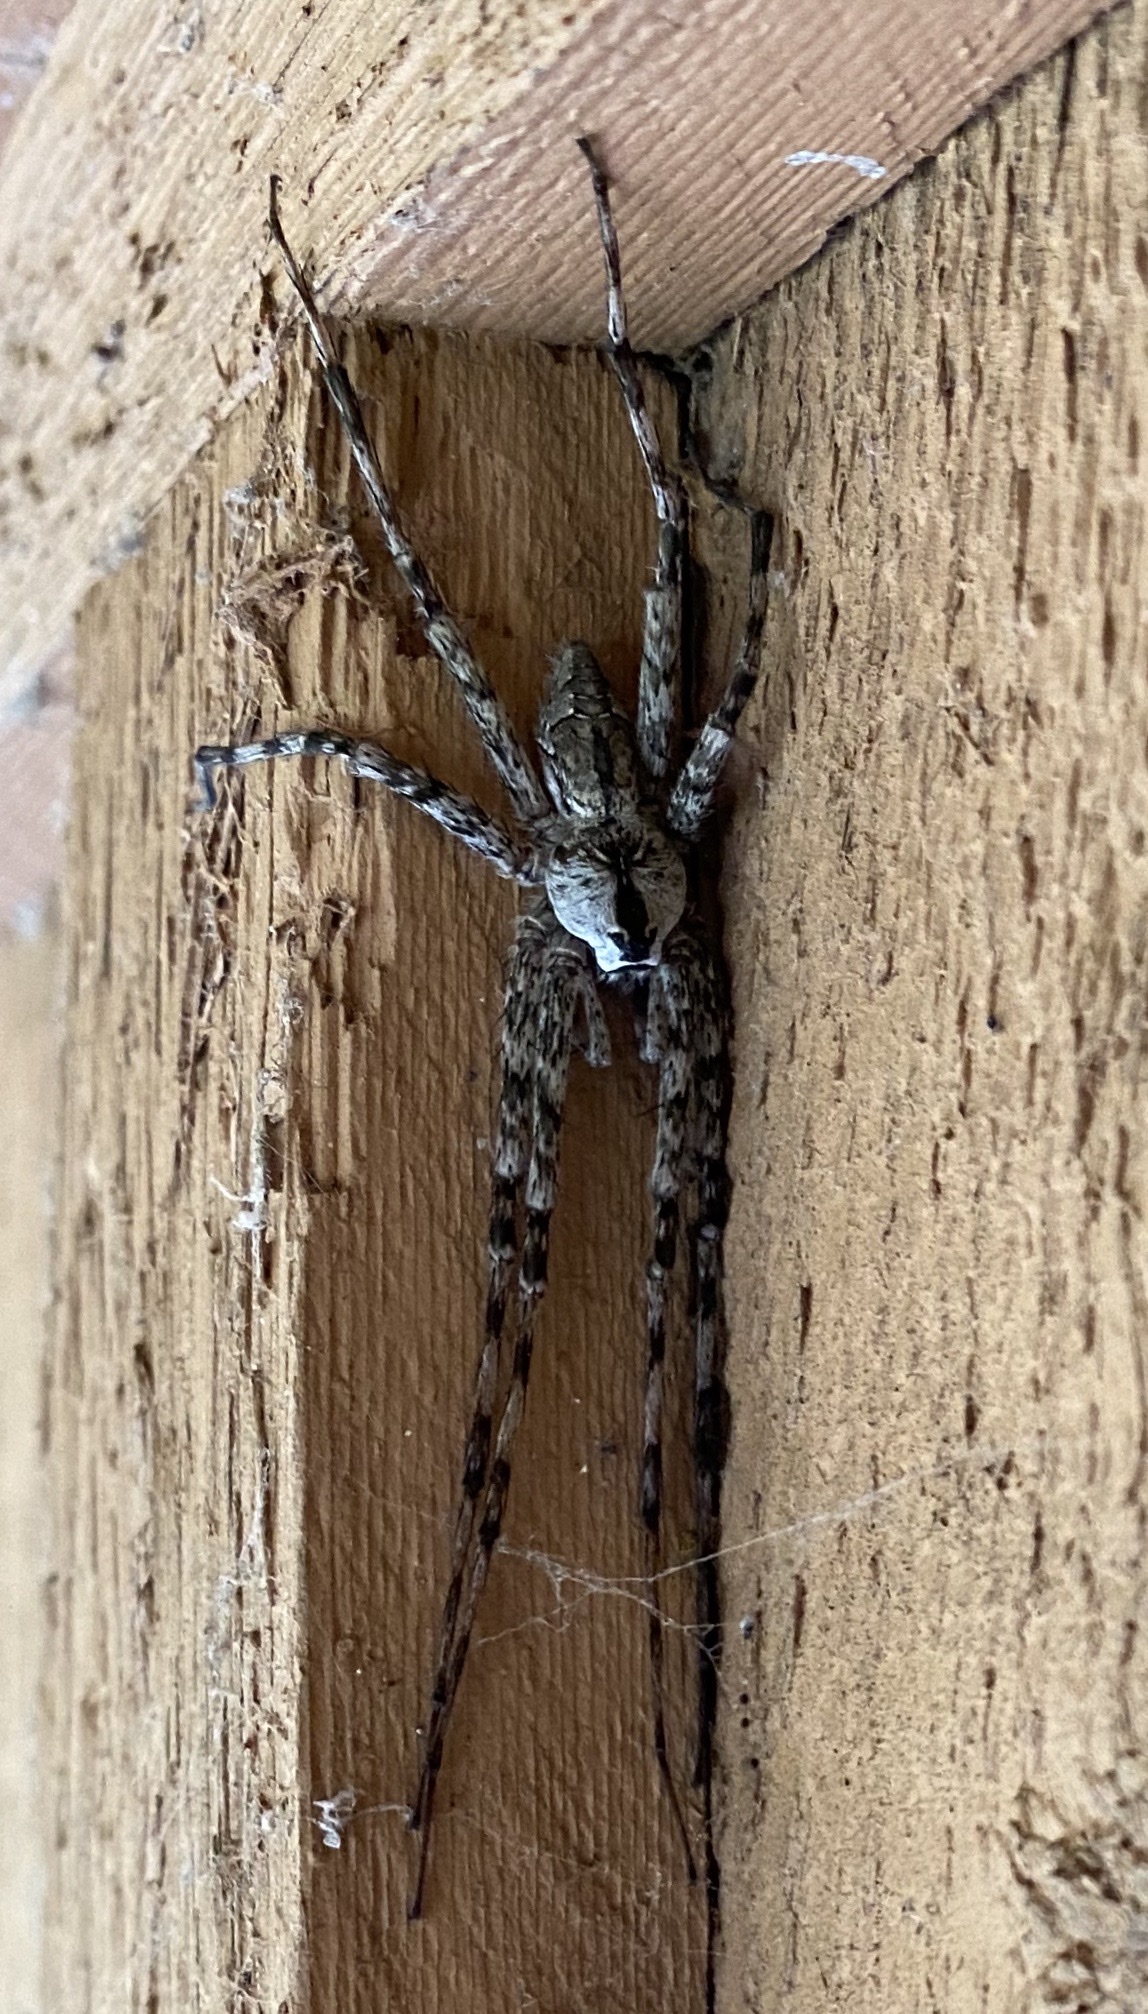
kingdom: Animalia
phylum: Arthropoda
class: Arachnida
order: Araneae
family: Pisauridae
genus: Dolomedes
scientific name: Dolomedes albineus
